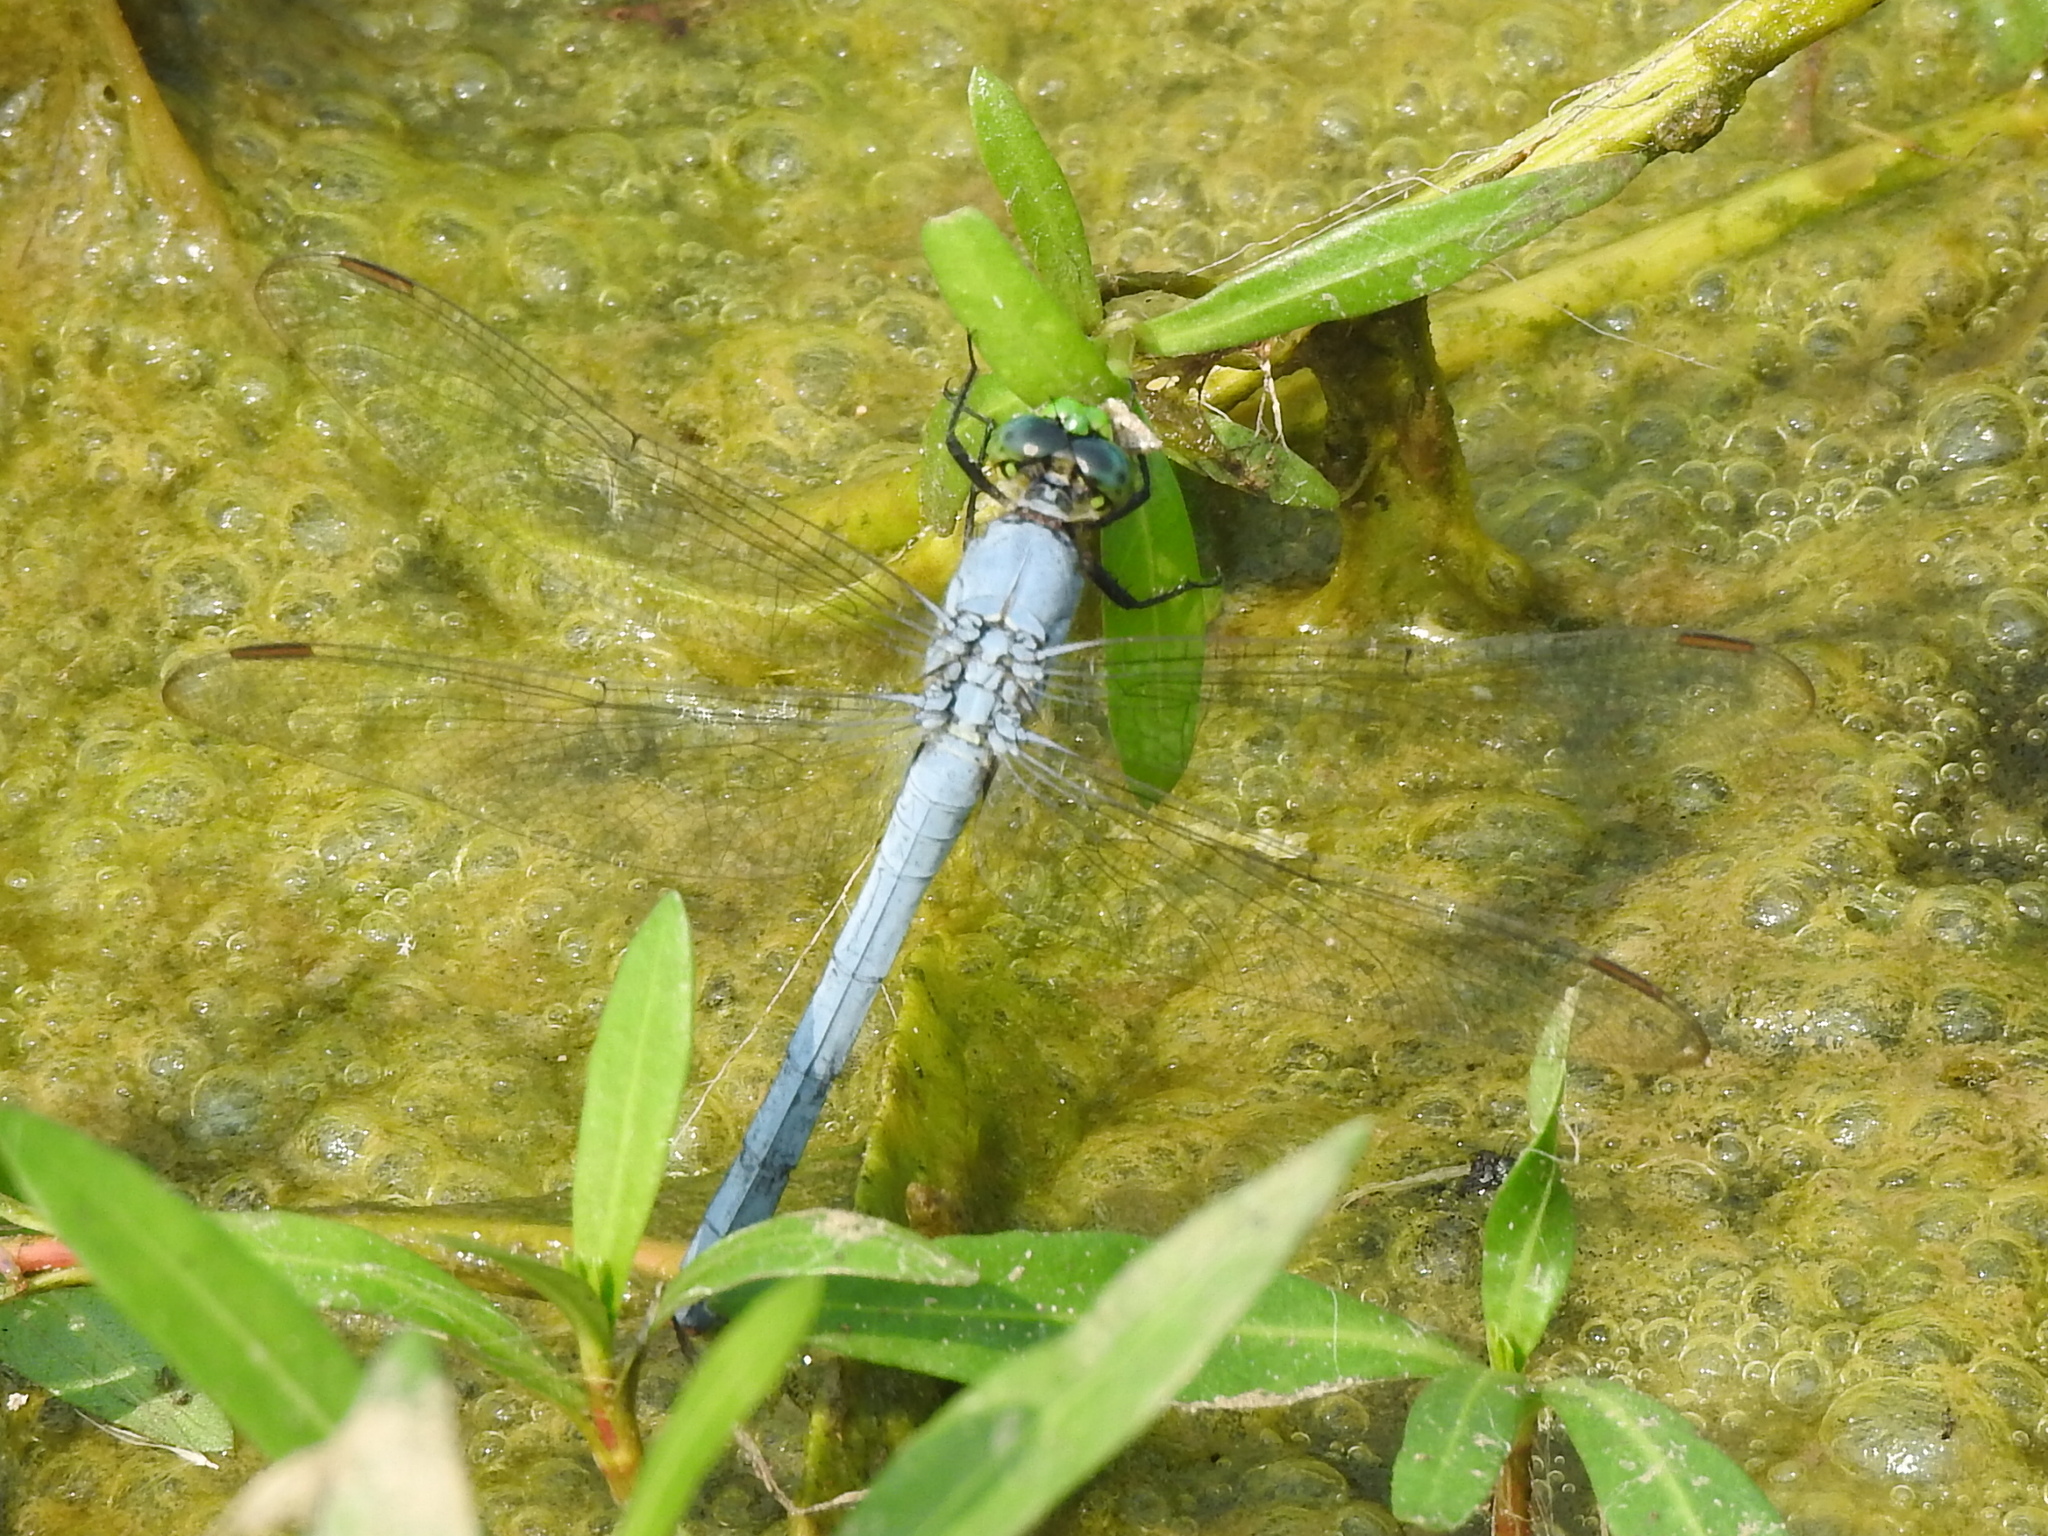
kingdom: Animalia
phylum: Arthropoda
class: Insecta
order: Odonata
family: Libellulidae
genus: Erythemis
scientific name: Erythemis simplicicollis
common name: Eastern pondhawk
